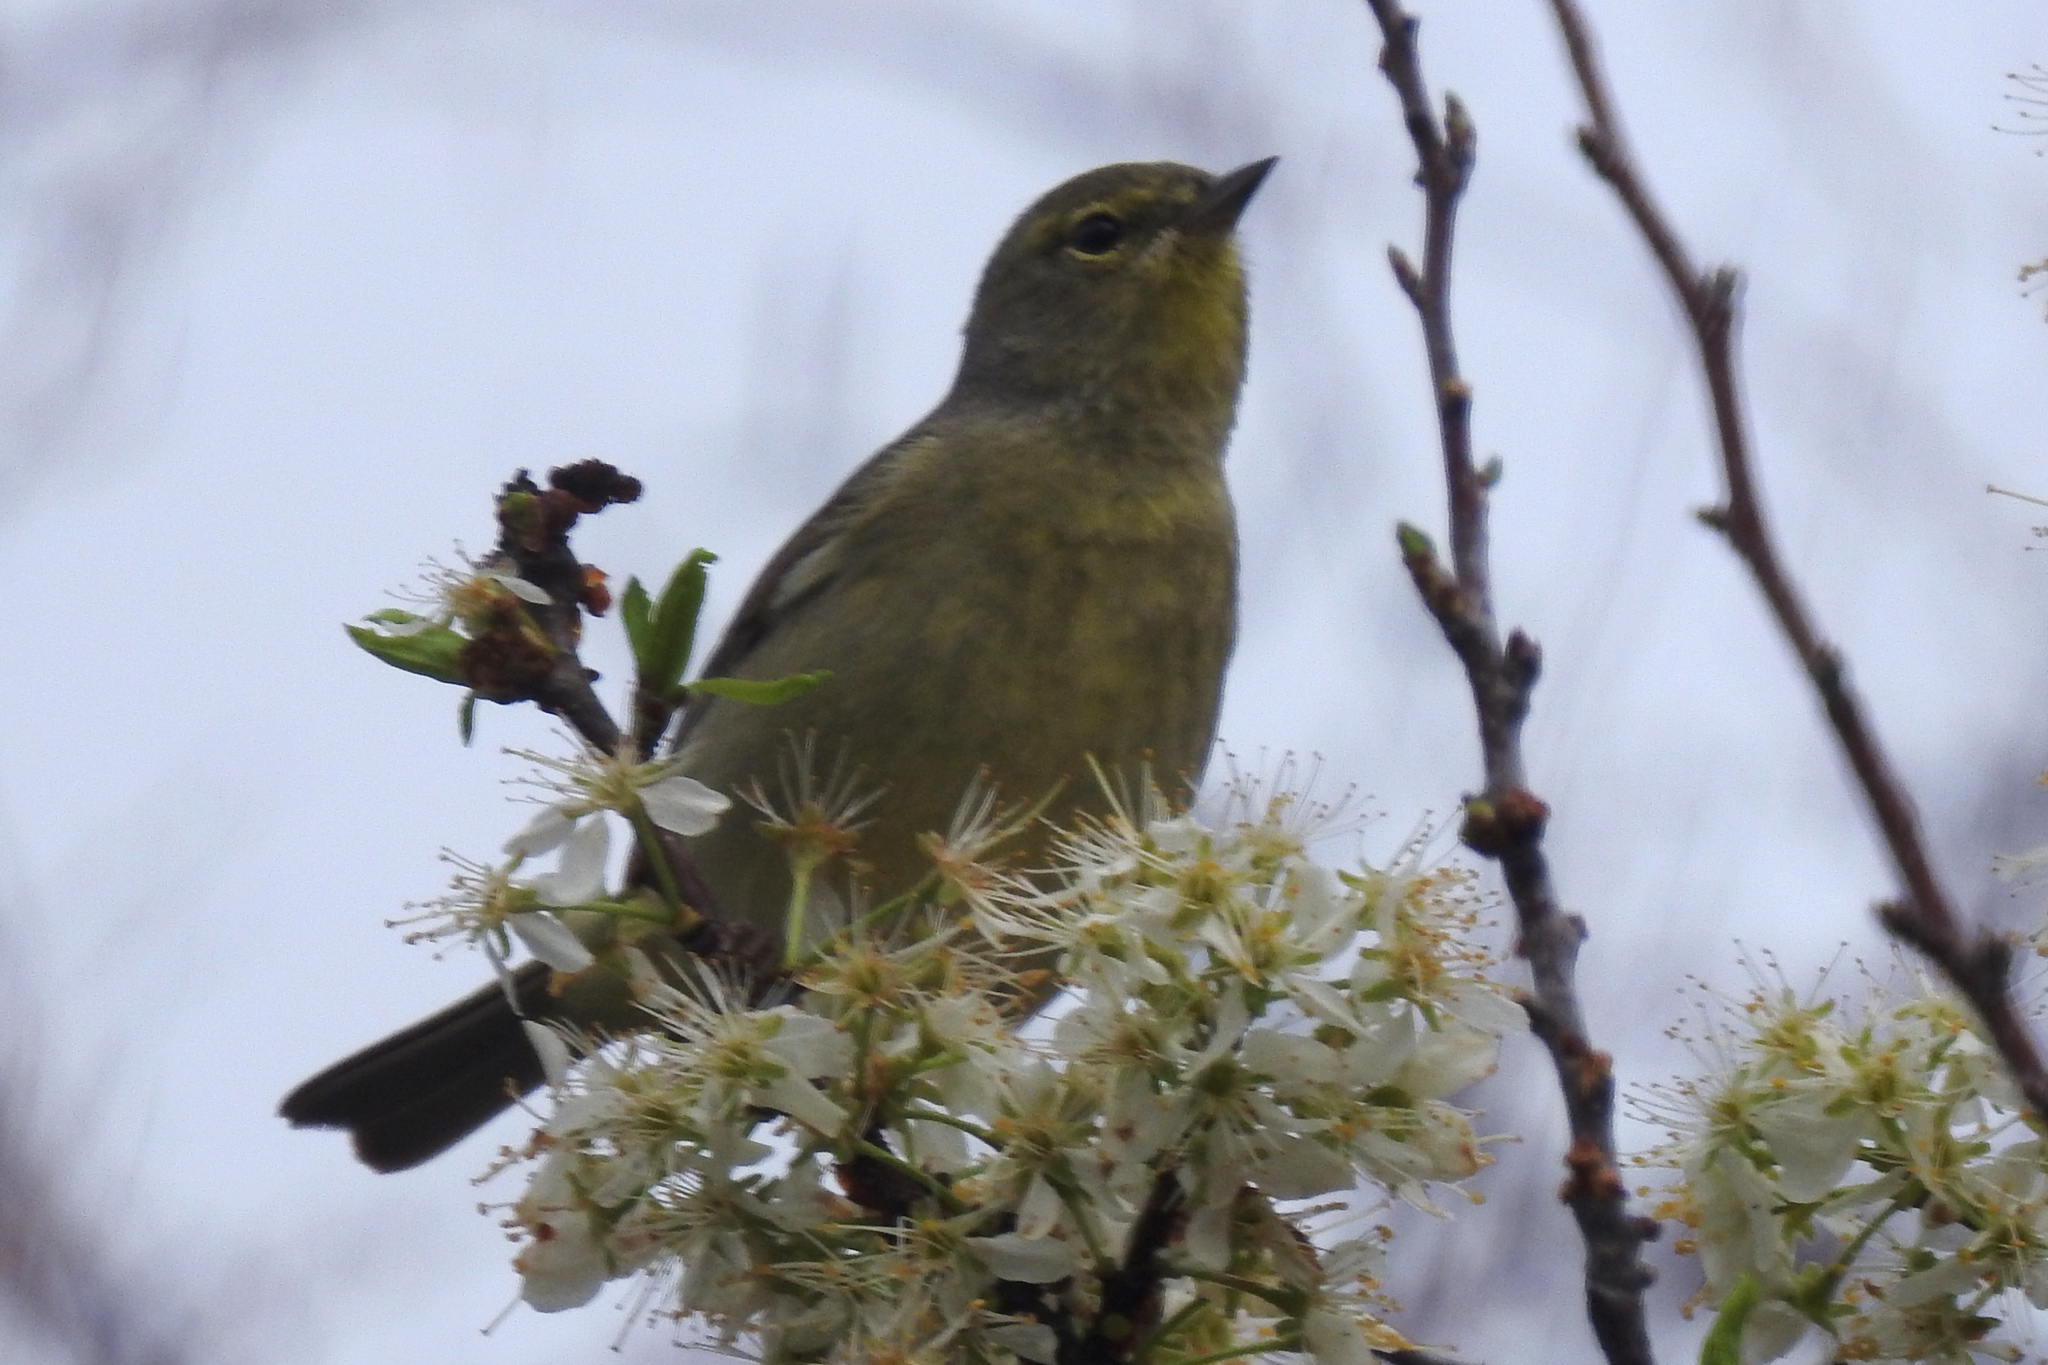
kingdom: Animalia
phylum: Chordata
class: Aves
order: Passeriformes
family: Parulidae
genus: Leiothlypis
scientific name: Leiothlypis celata
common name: Orange-crowned warbler
